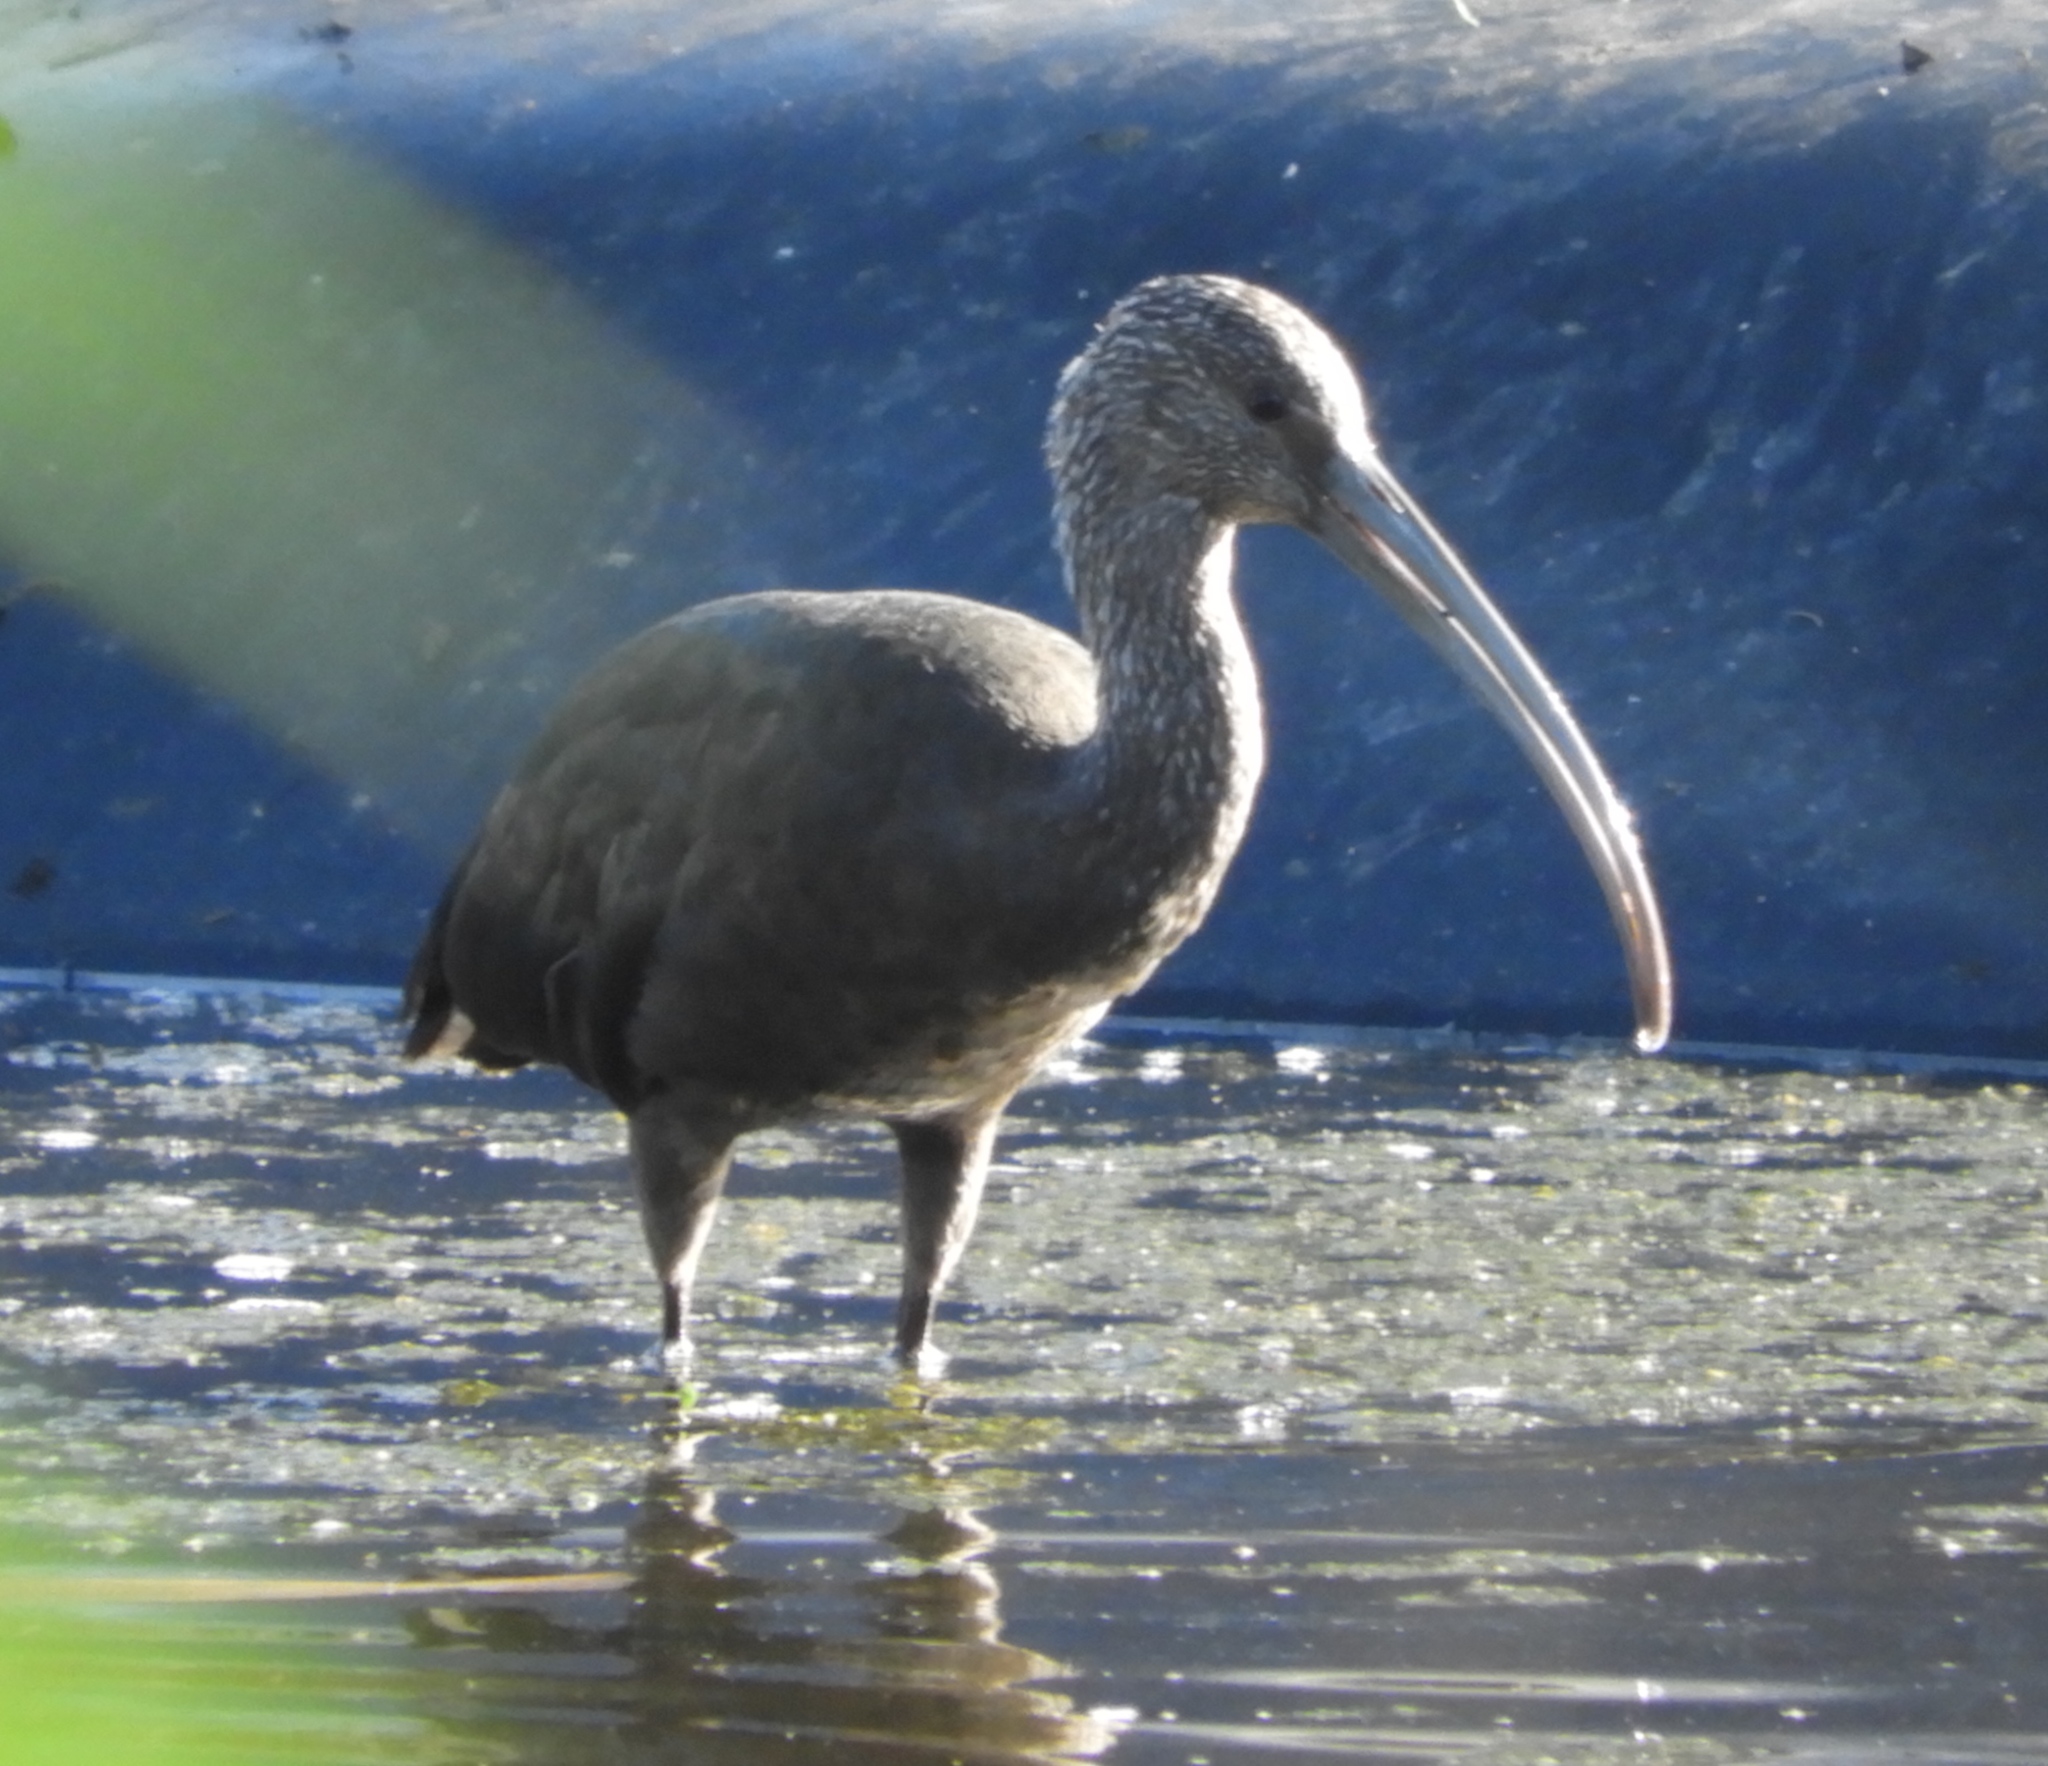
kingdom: Animalia
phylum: Chordata
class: Aves
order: Pelecaniformes
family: Threskiornithidae
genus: Plegadis
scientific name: Plegadis chihi
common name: White-faced ibis
